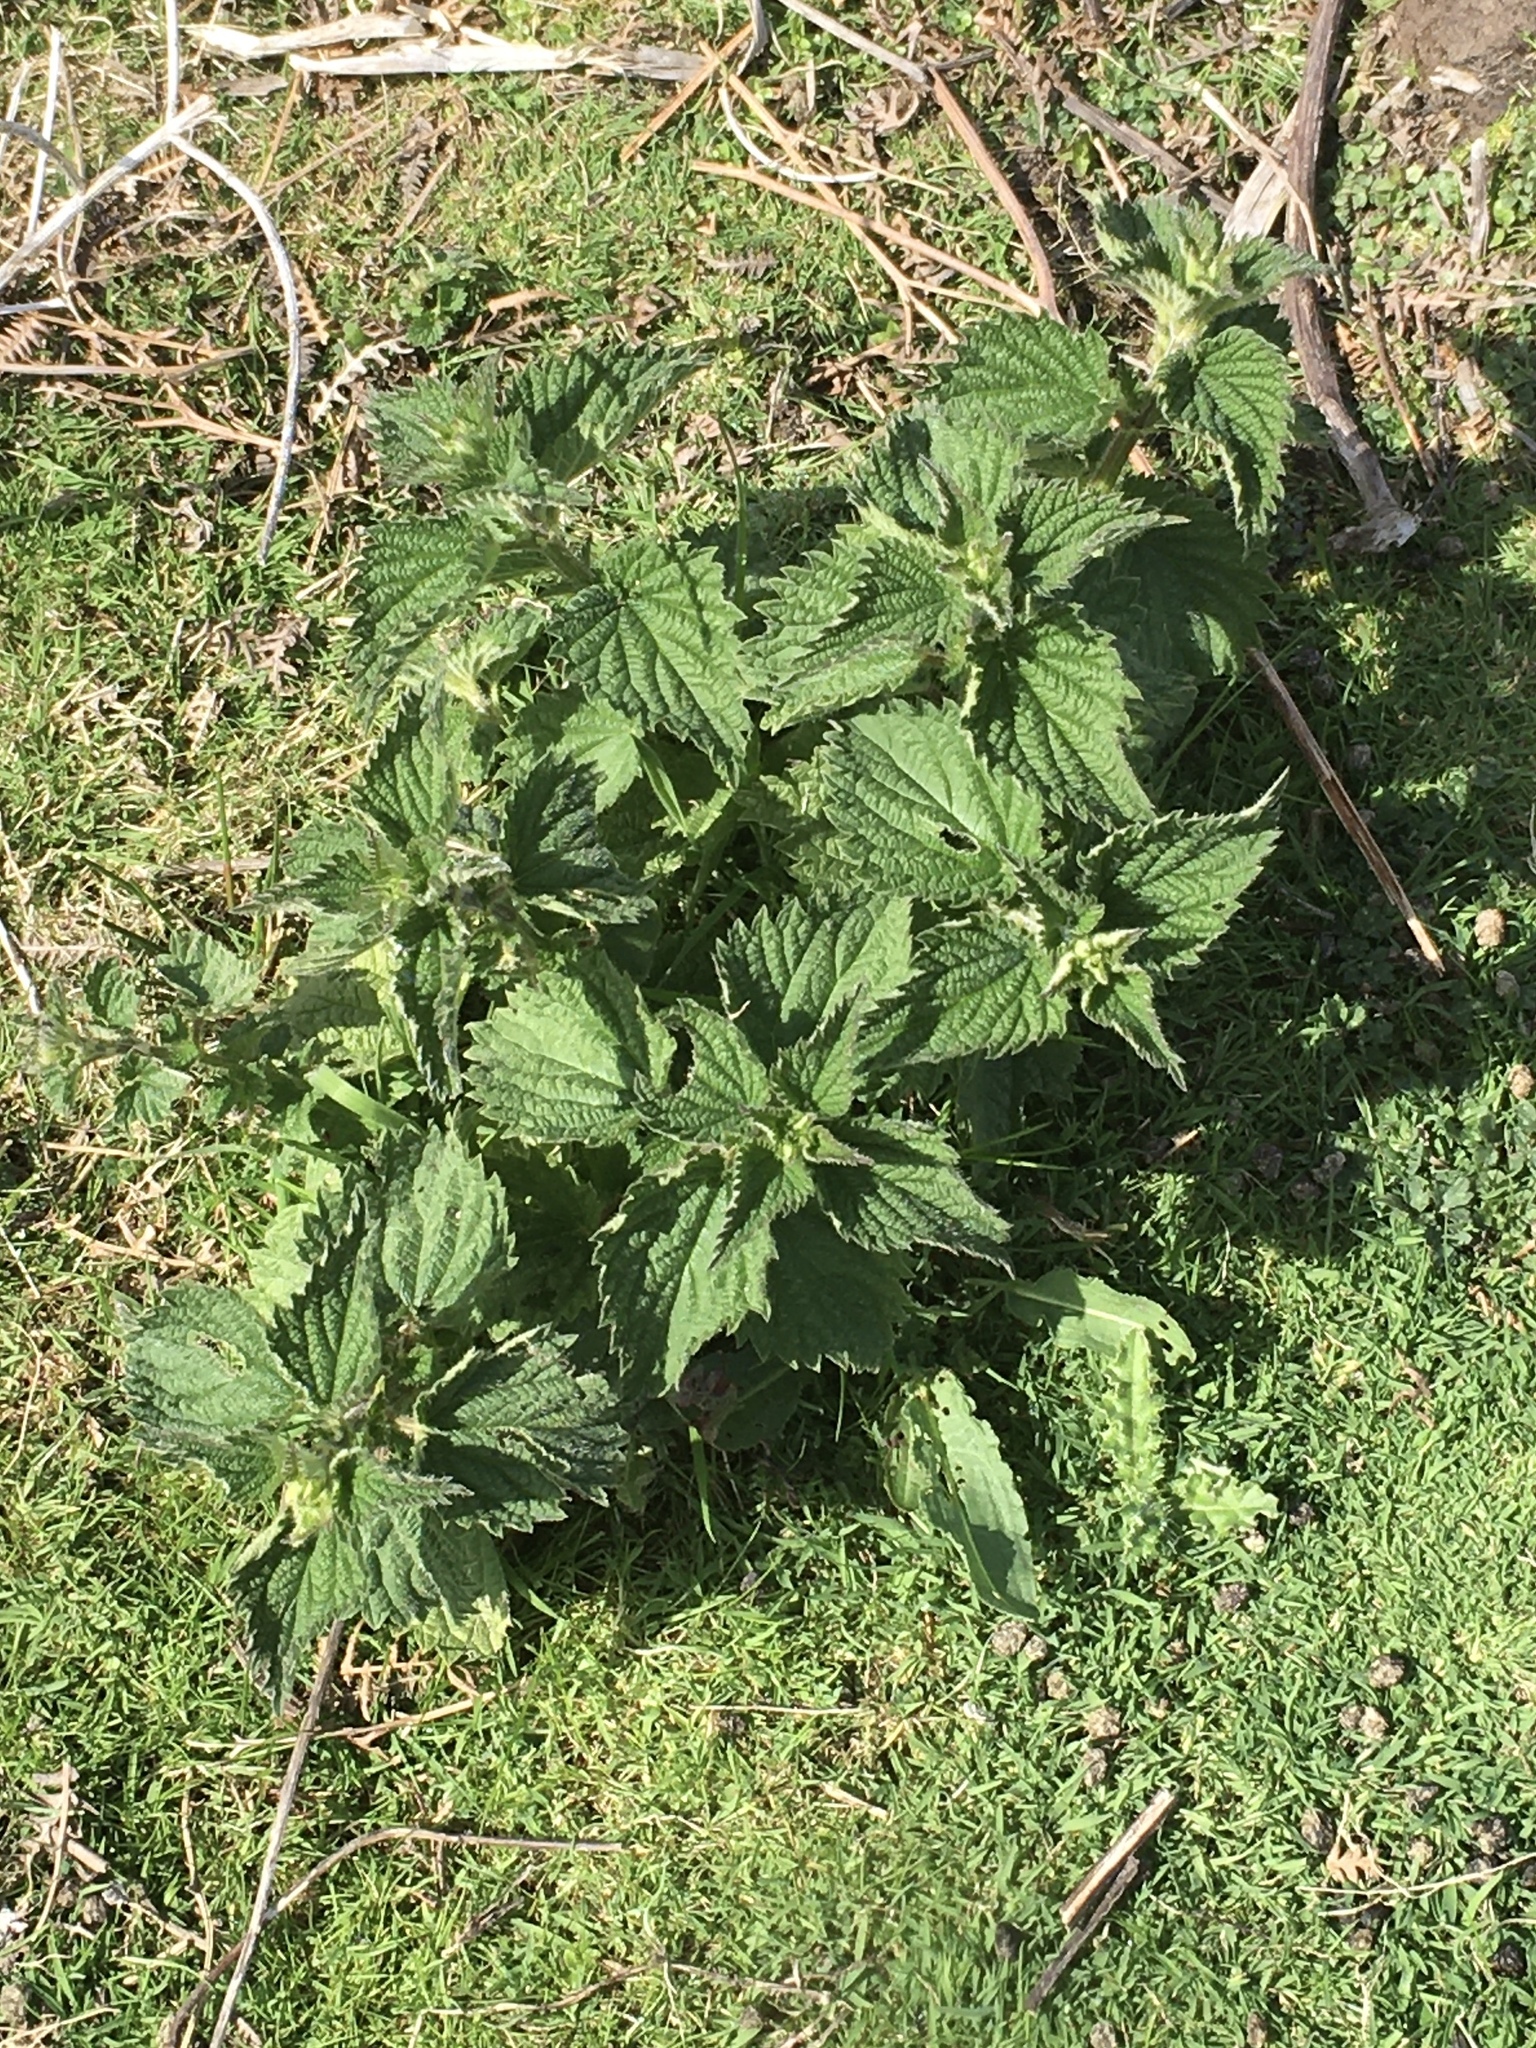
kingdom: Plantae
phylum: Tracheophyta
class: Magnoliopsida
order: Rosales
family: Urticaceae
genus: Urtica
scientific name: Urtica dioica
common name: Common nettle
